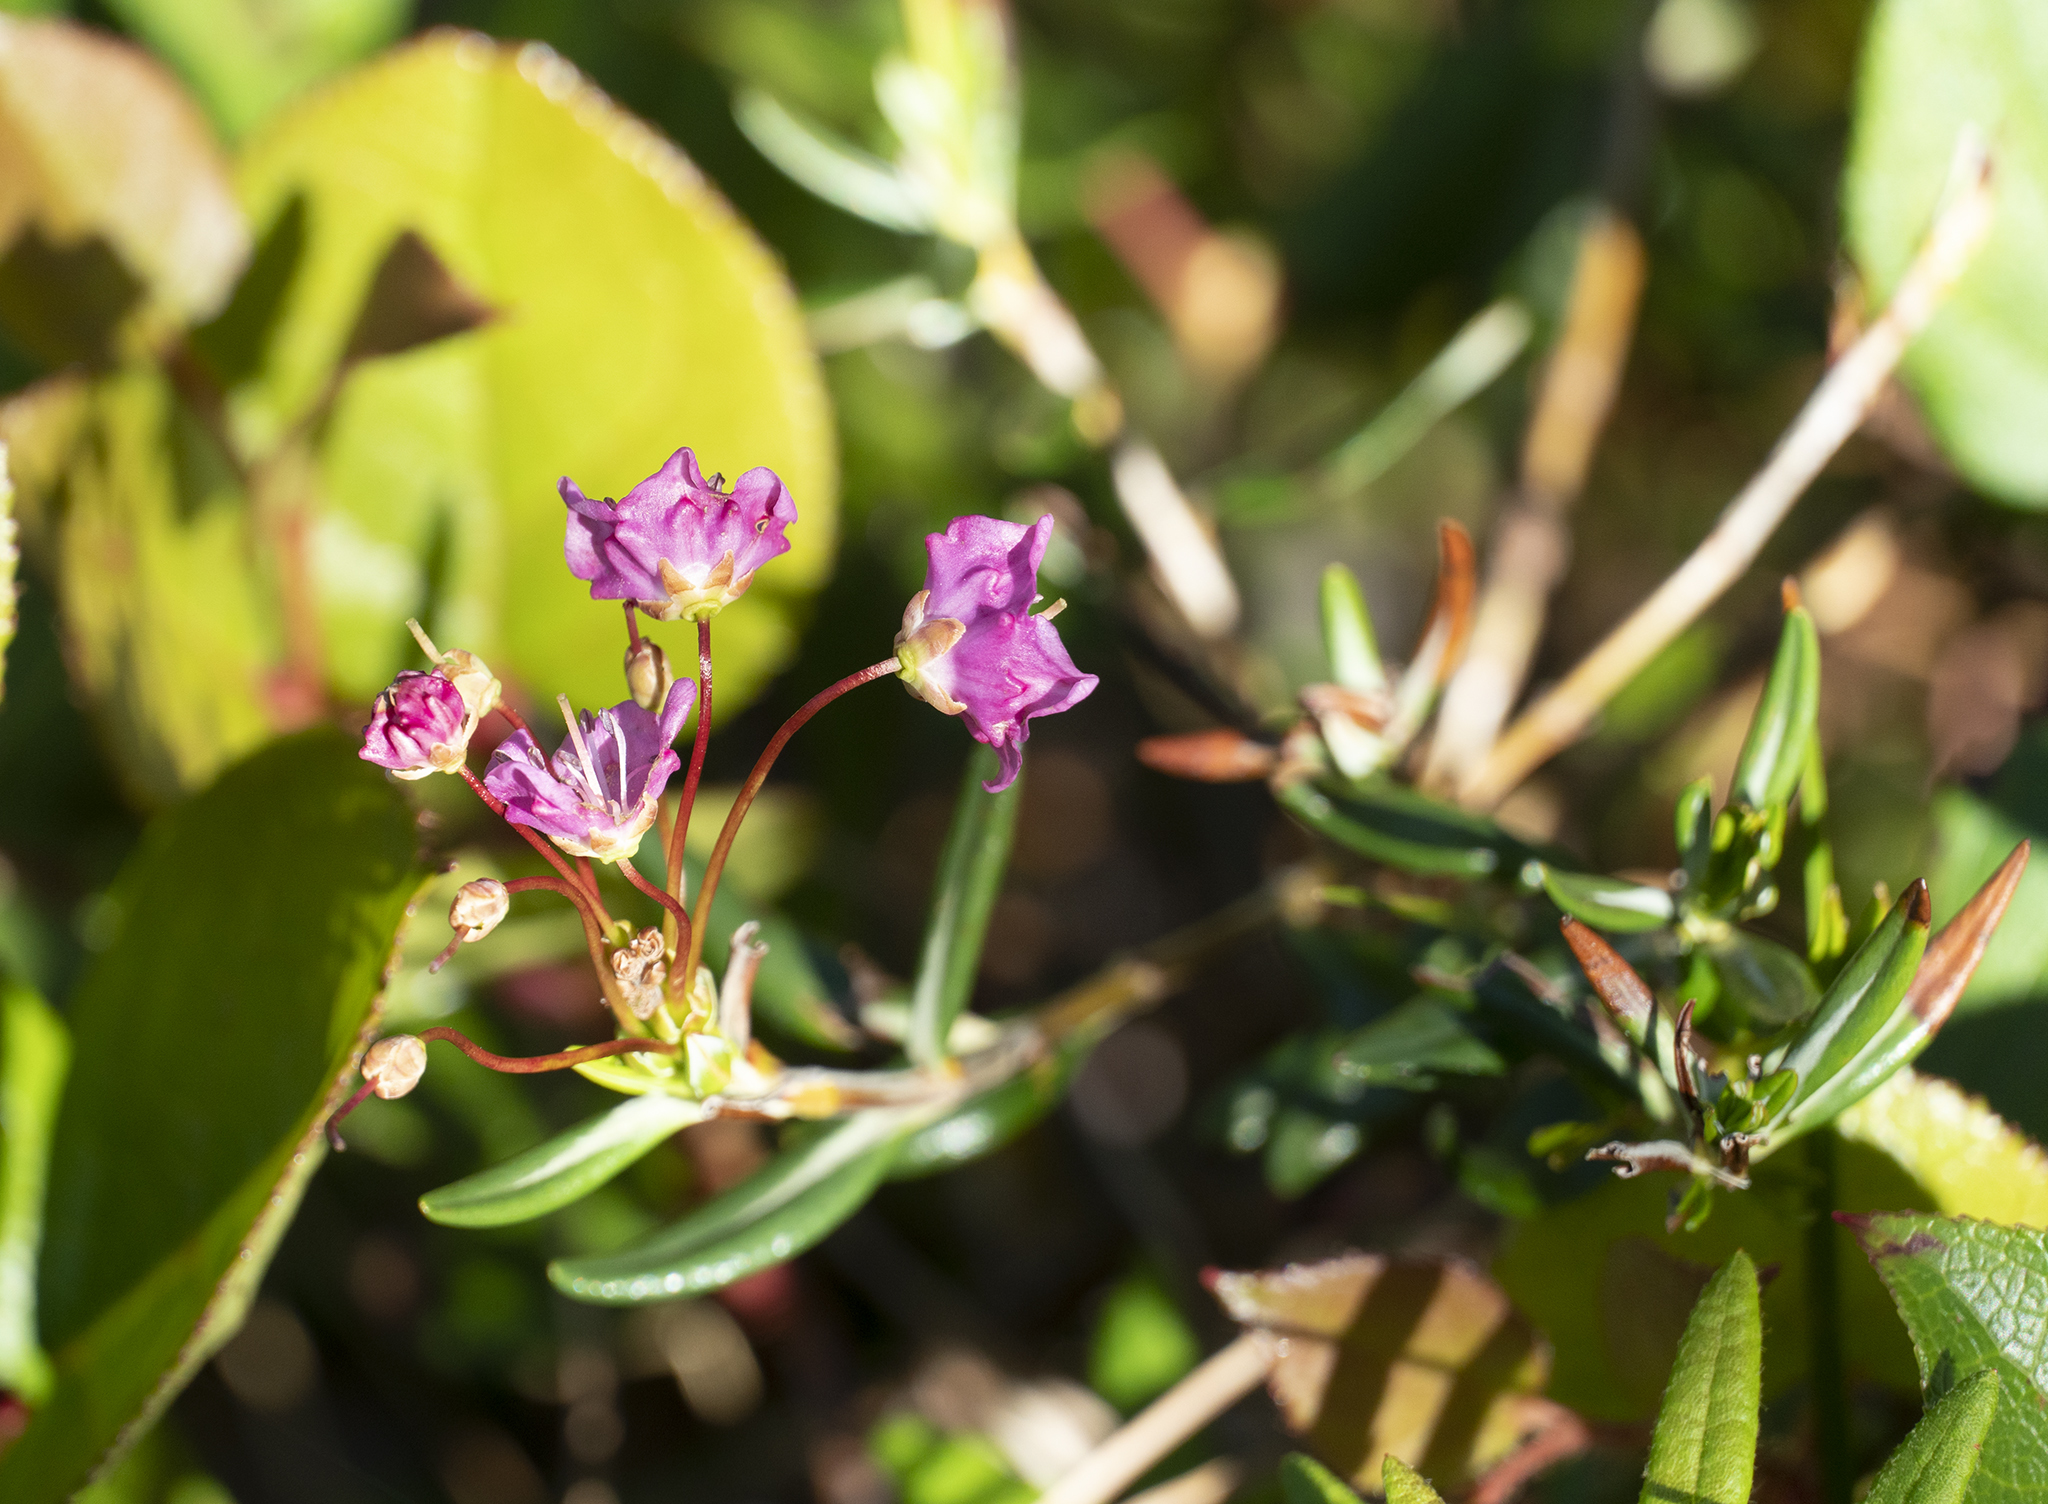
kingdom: Plantae
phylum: Tracheophyta
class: Magnoliopsida
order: Ericales
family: Ericaceae
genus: Kalmia
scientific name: Kalmia microphylla
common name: Alpine bog laurel
